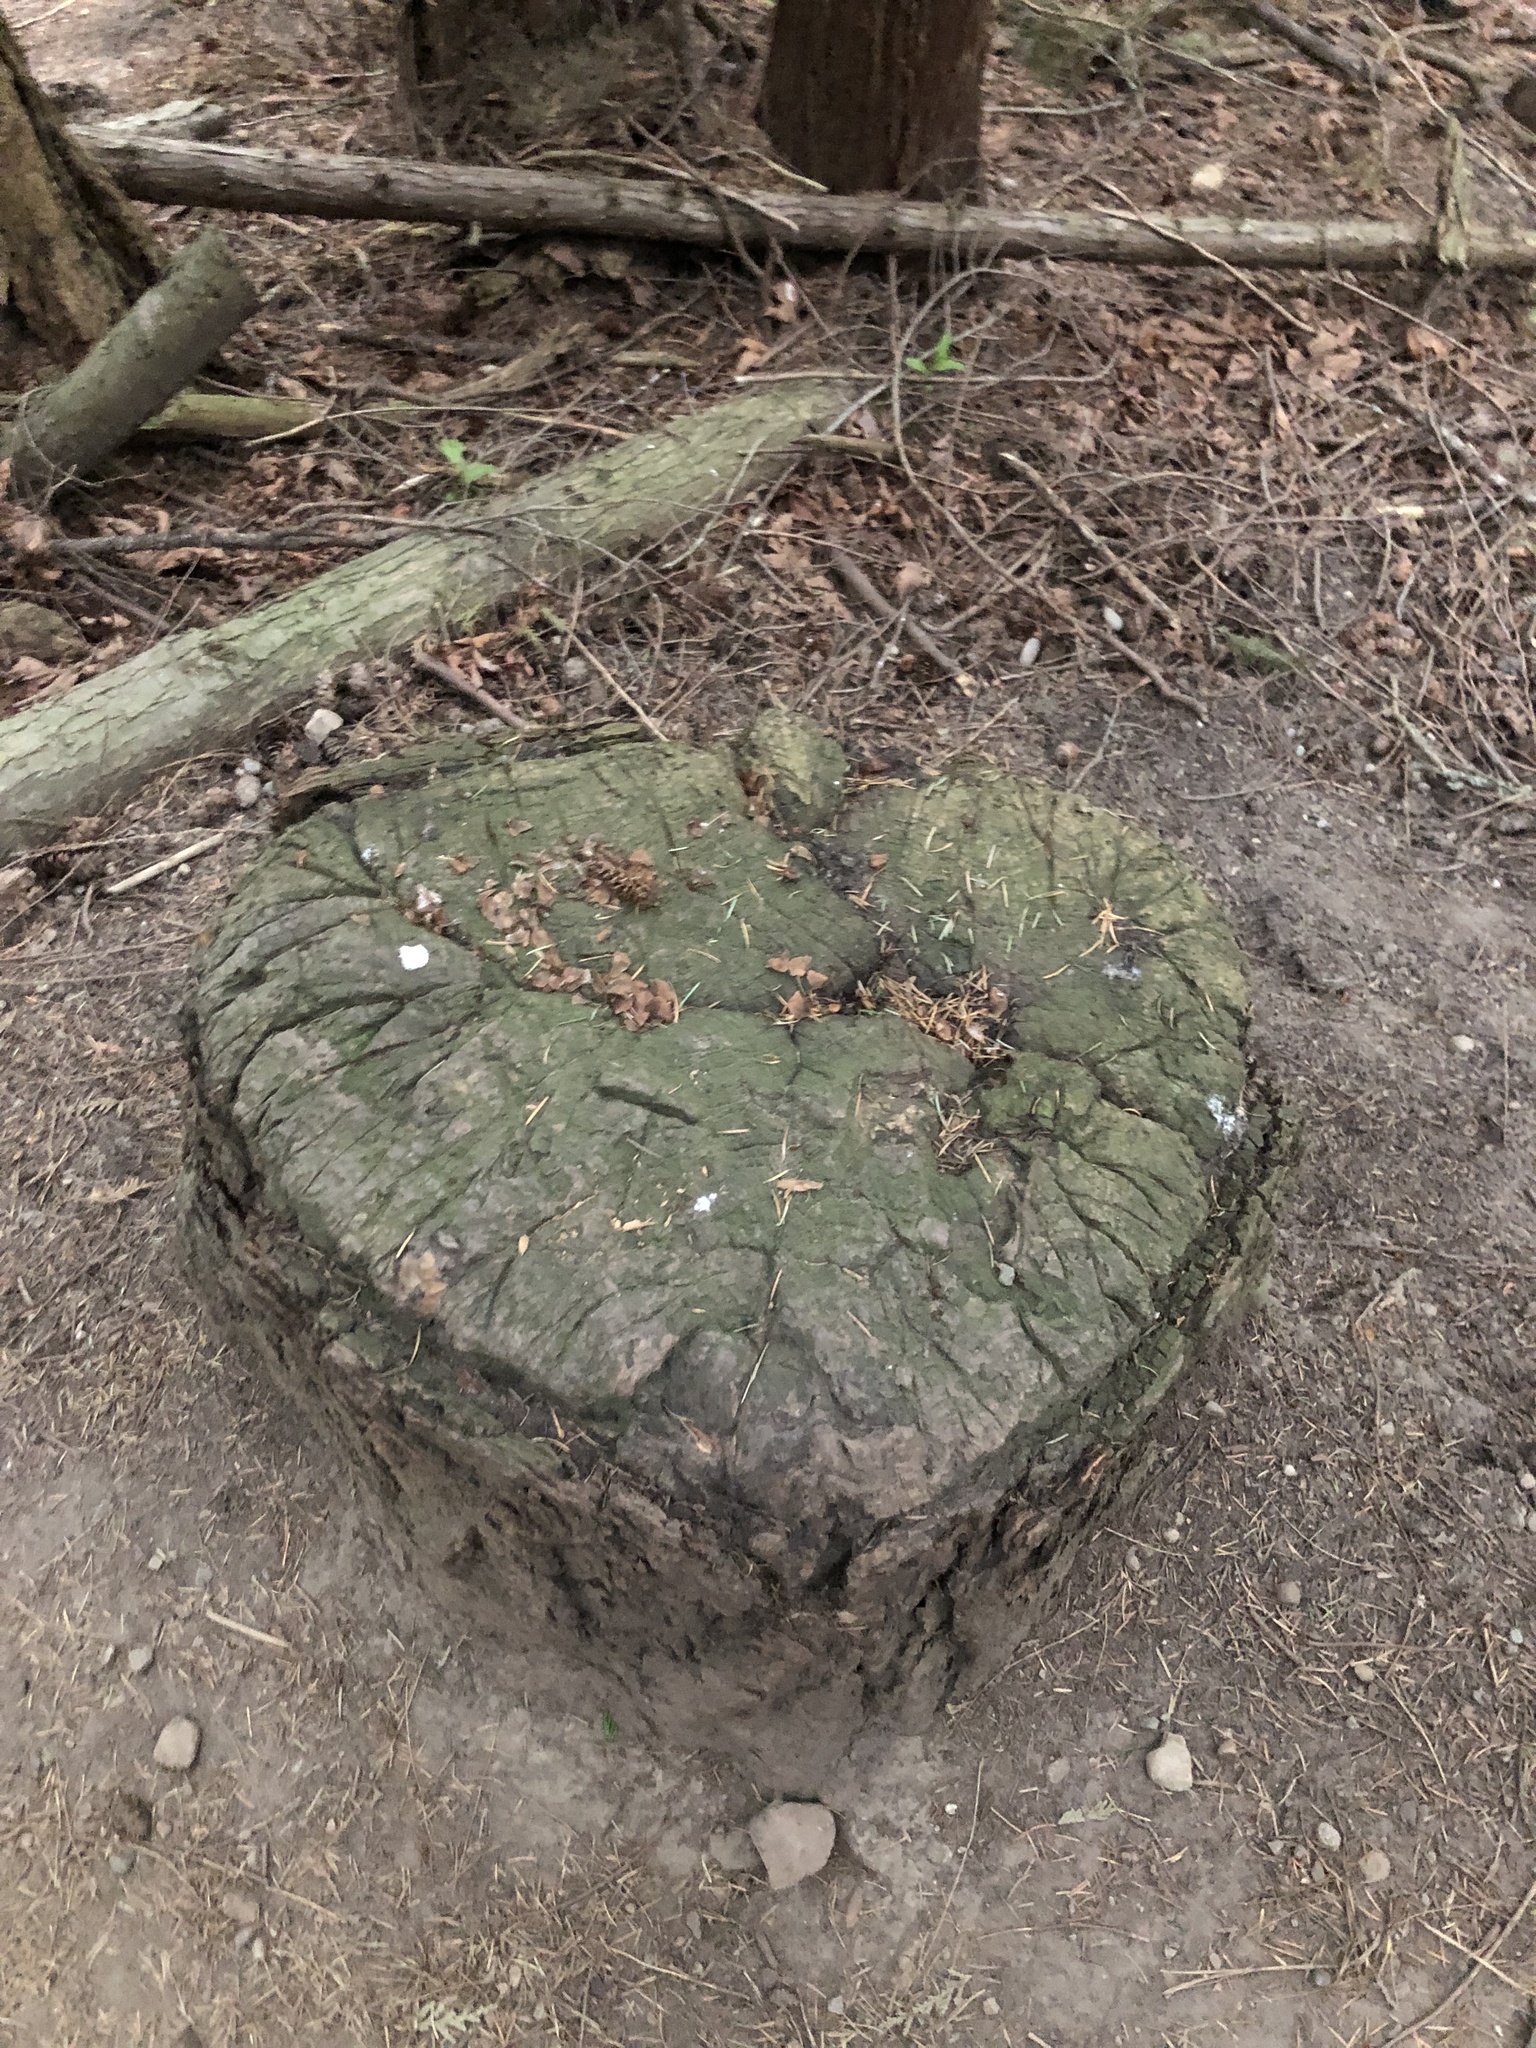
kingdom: Plantae
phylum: Tracheophyta
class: Pinopsida
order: Pinales
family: Pinaceae
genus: Pseudotsuga
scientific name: Pseudotsuga menziesii
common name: Douglas fir
